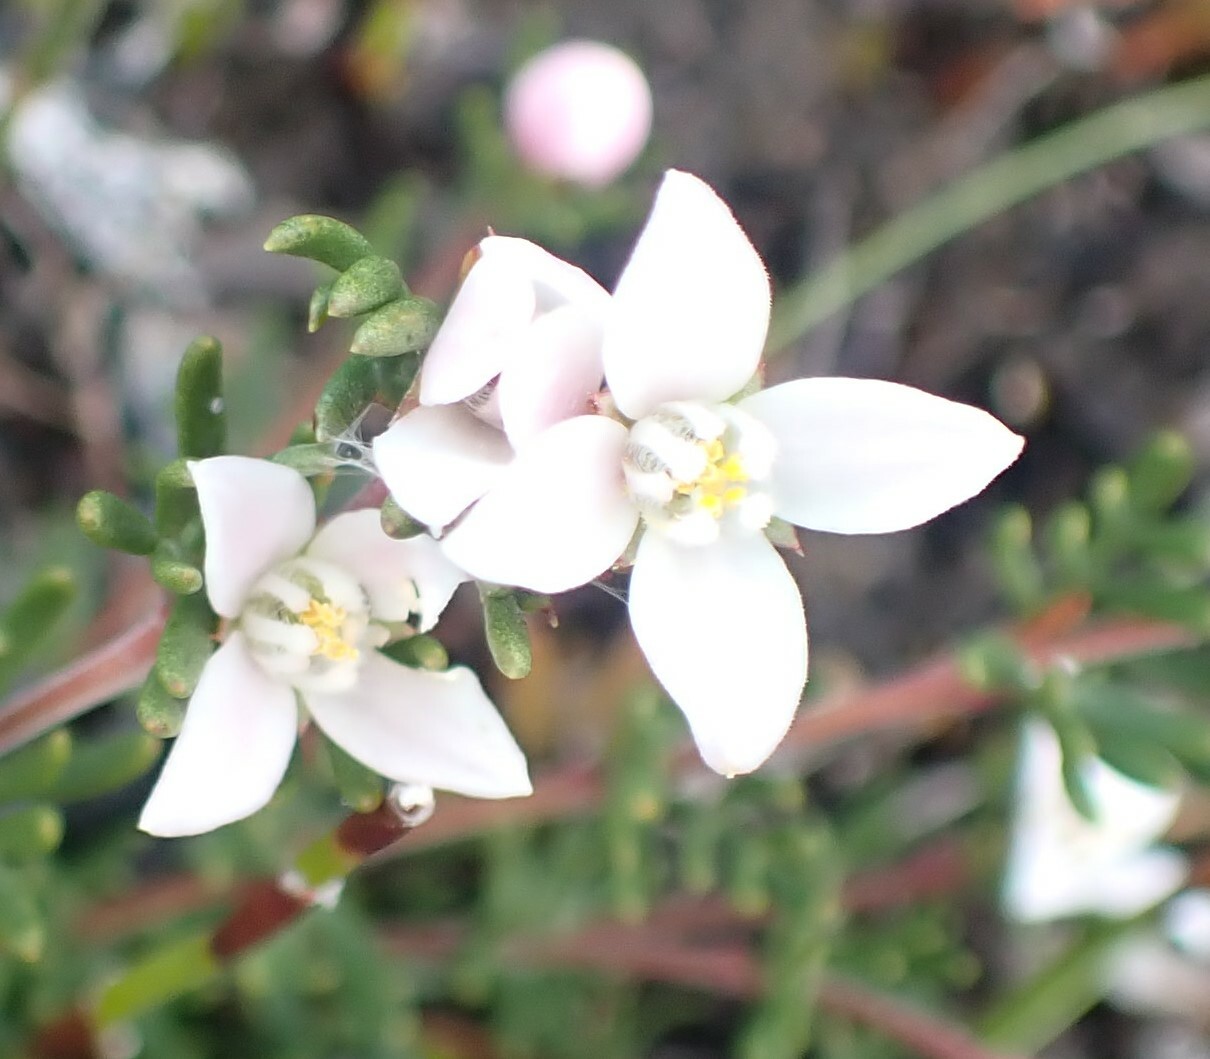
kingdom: Plantae
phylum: Tracheophyta
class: Magnoliopsida
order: Sapindales
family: Rutaceae
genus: Boronia
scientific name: Boronia elisabethiae
